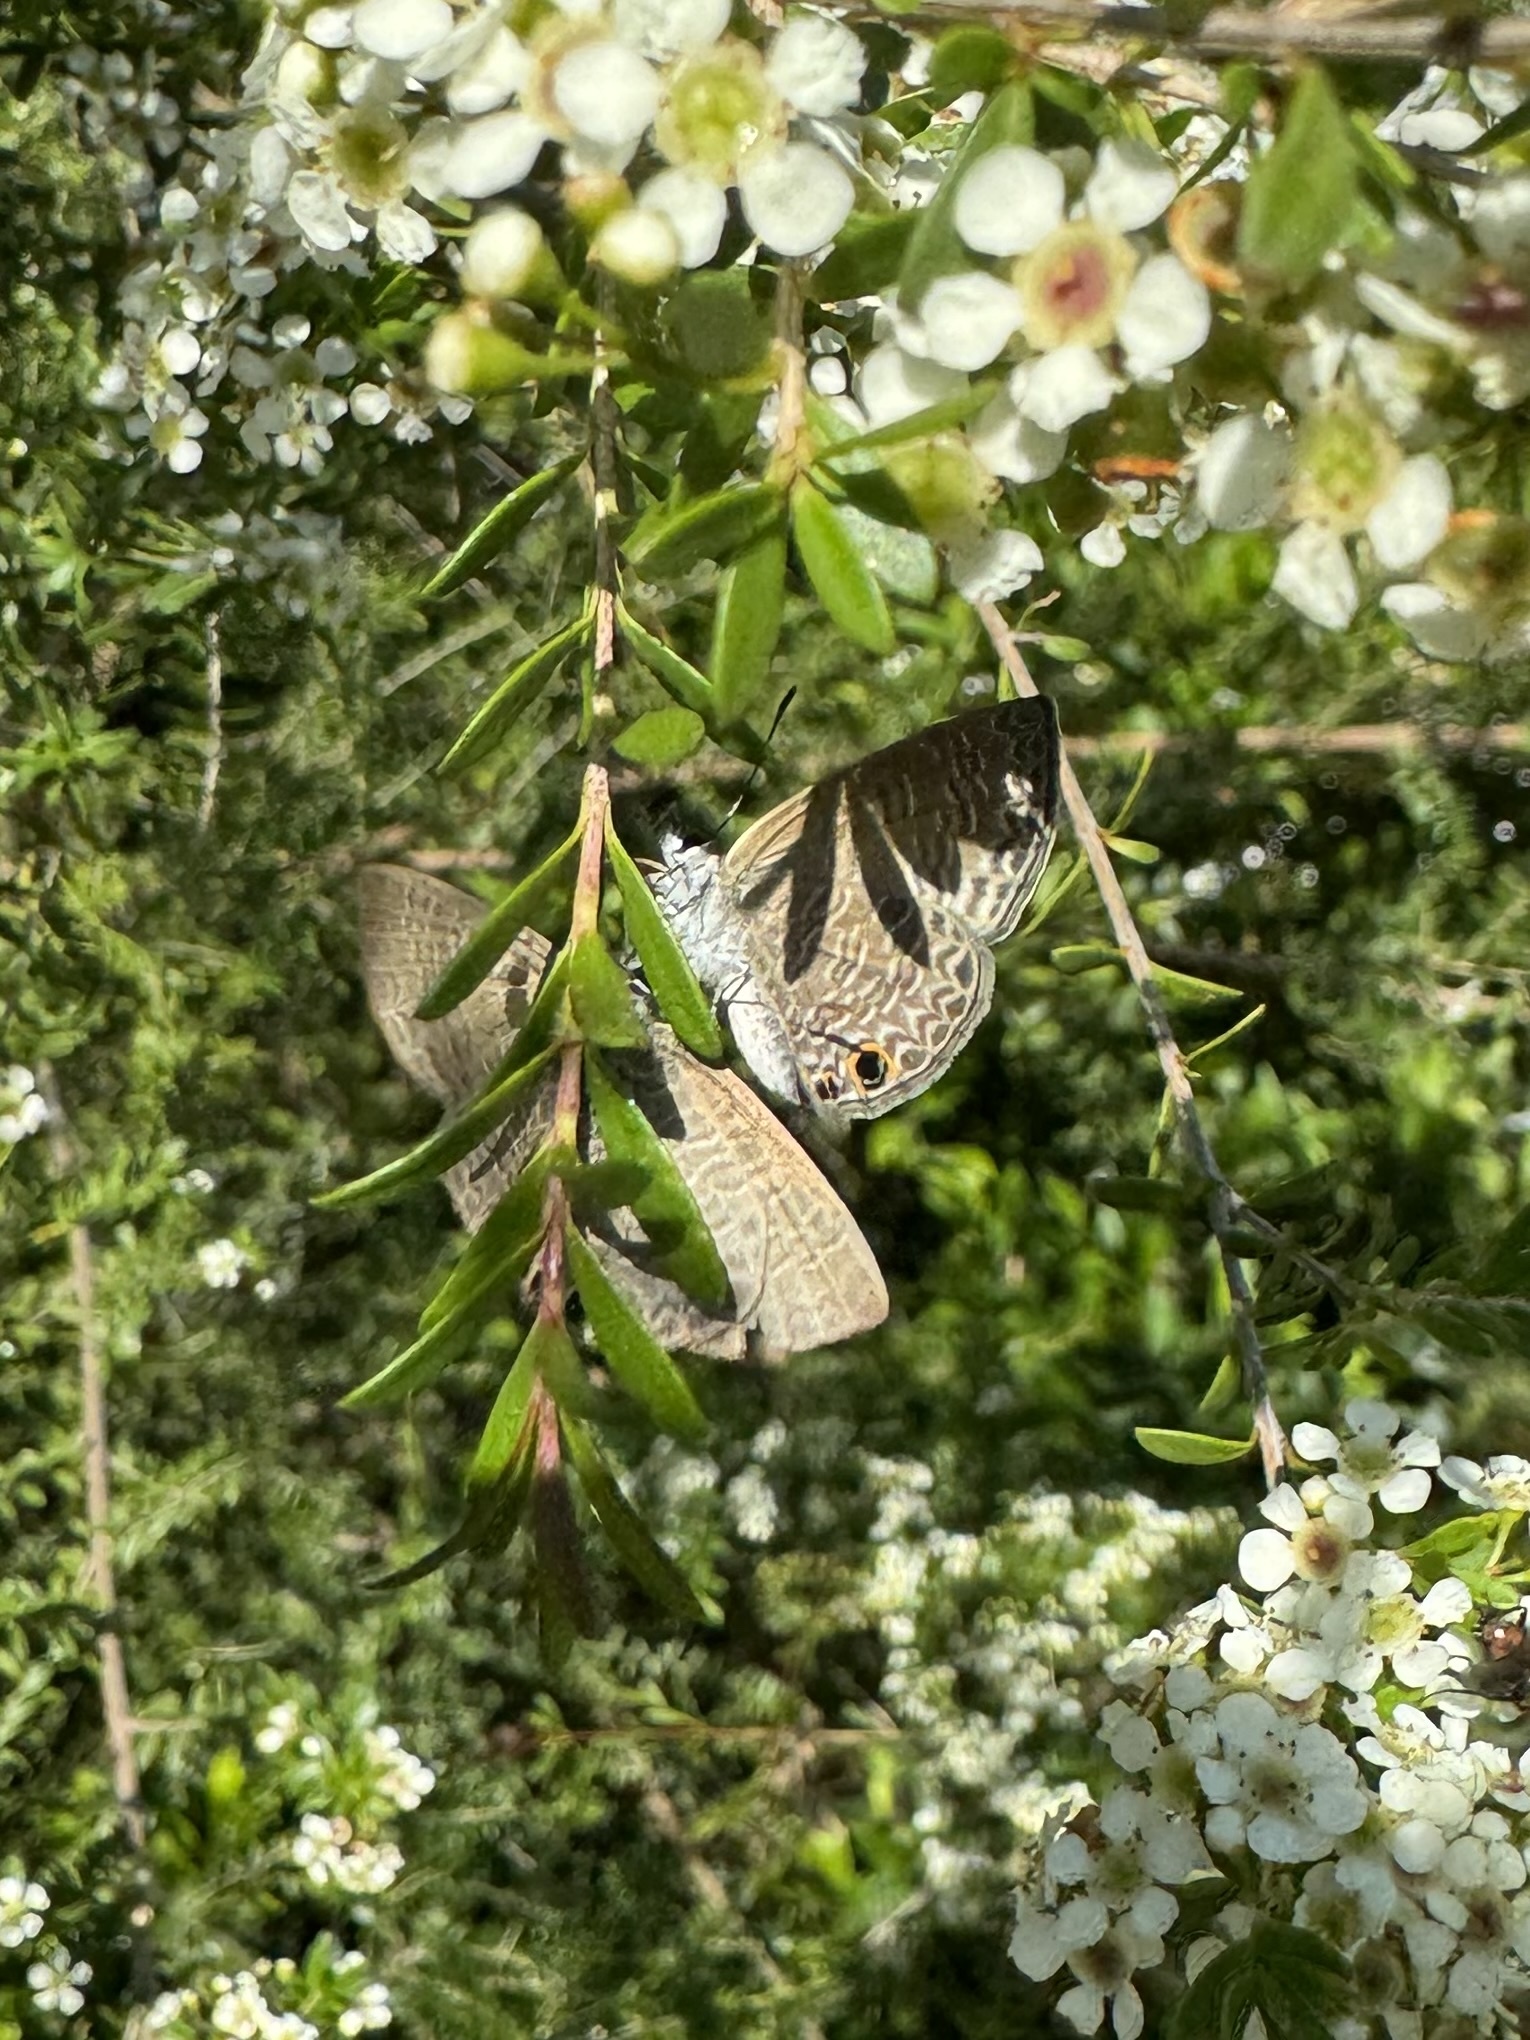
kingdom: Animalia
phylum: Arthropoda
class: Insecta
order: Lepidoptera
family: Lycaenidae
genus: Prosotas
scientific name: Prosotas dubiosa
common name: Tailless lineblue
